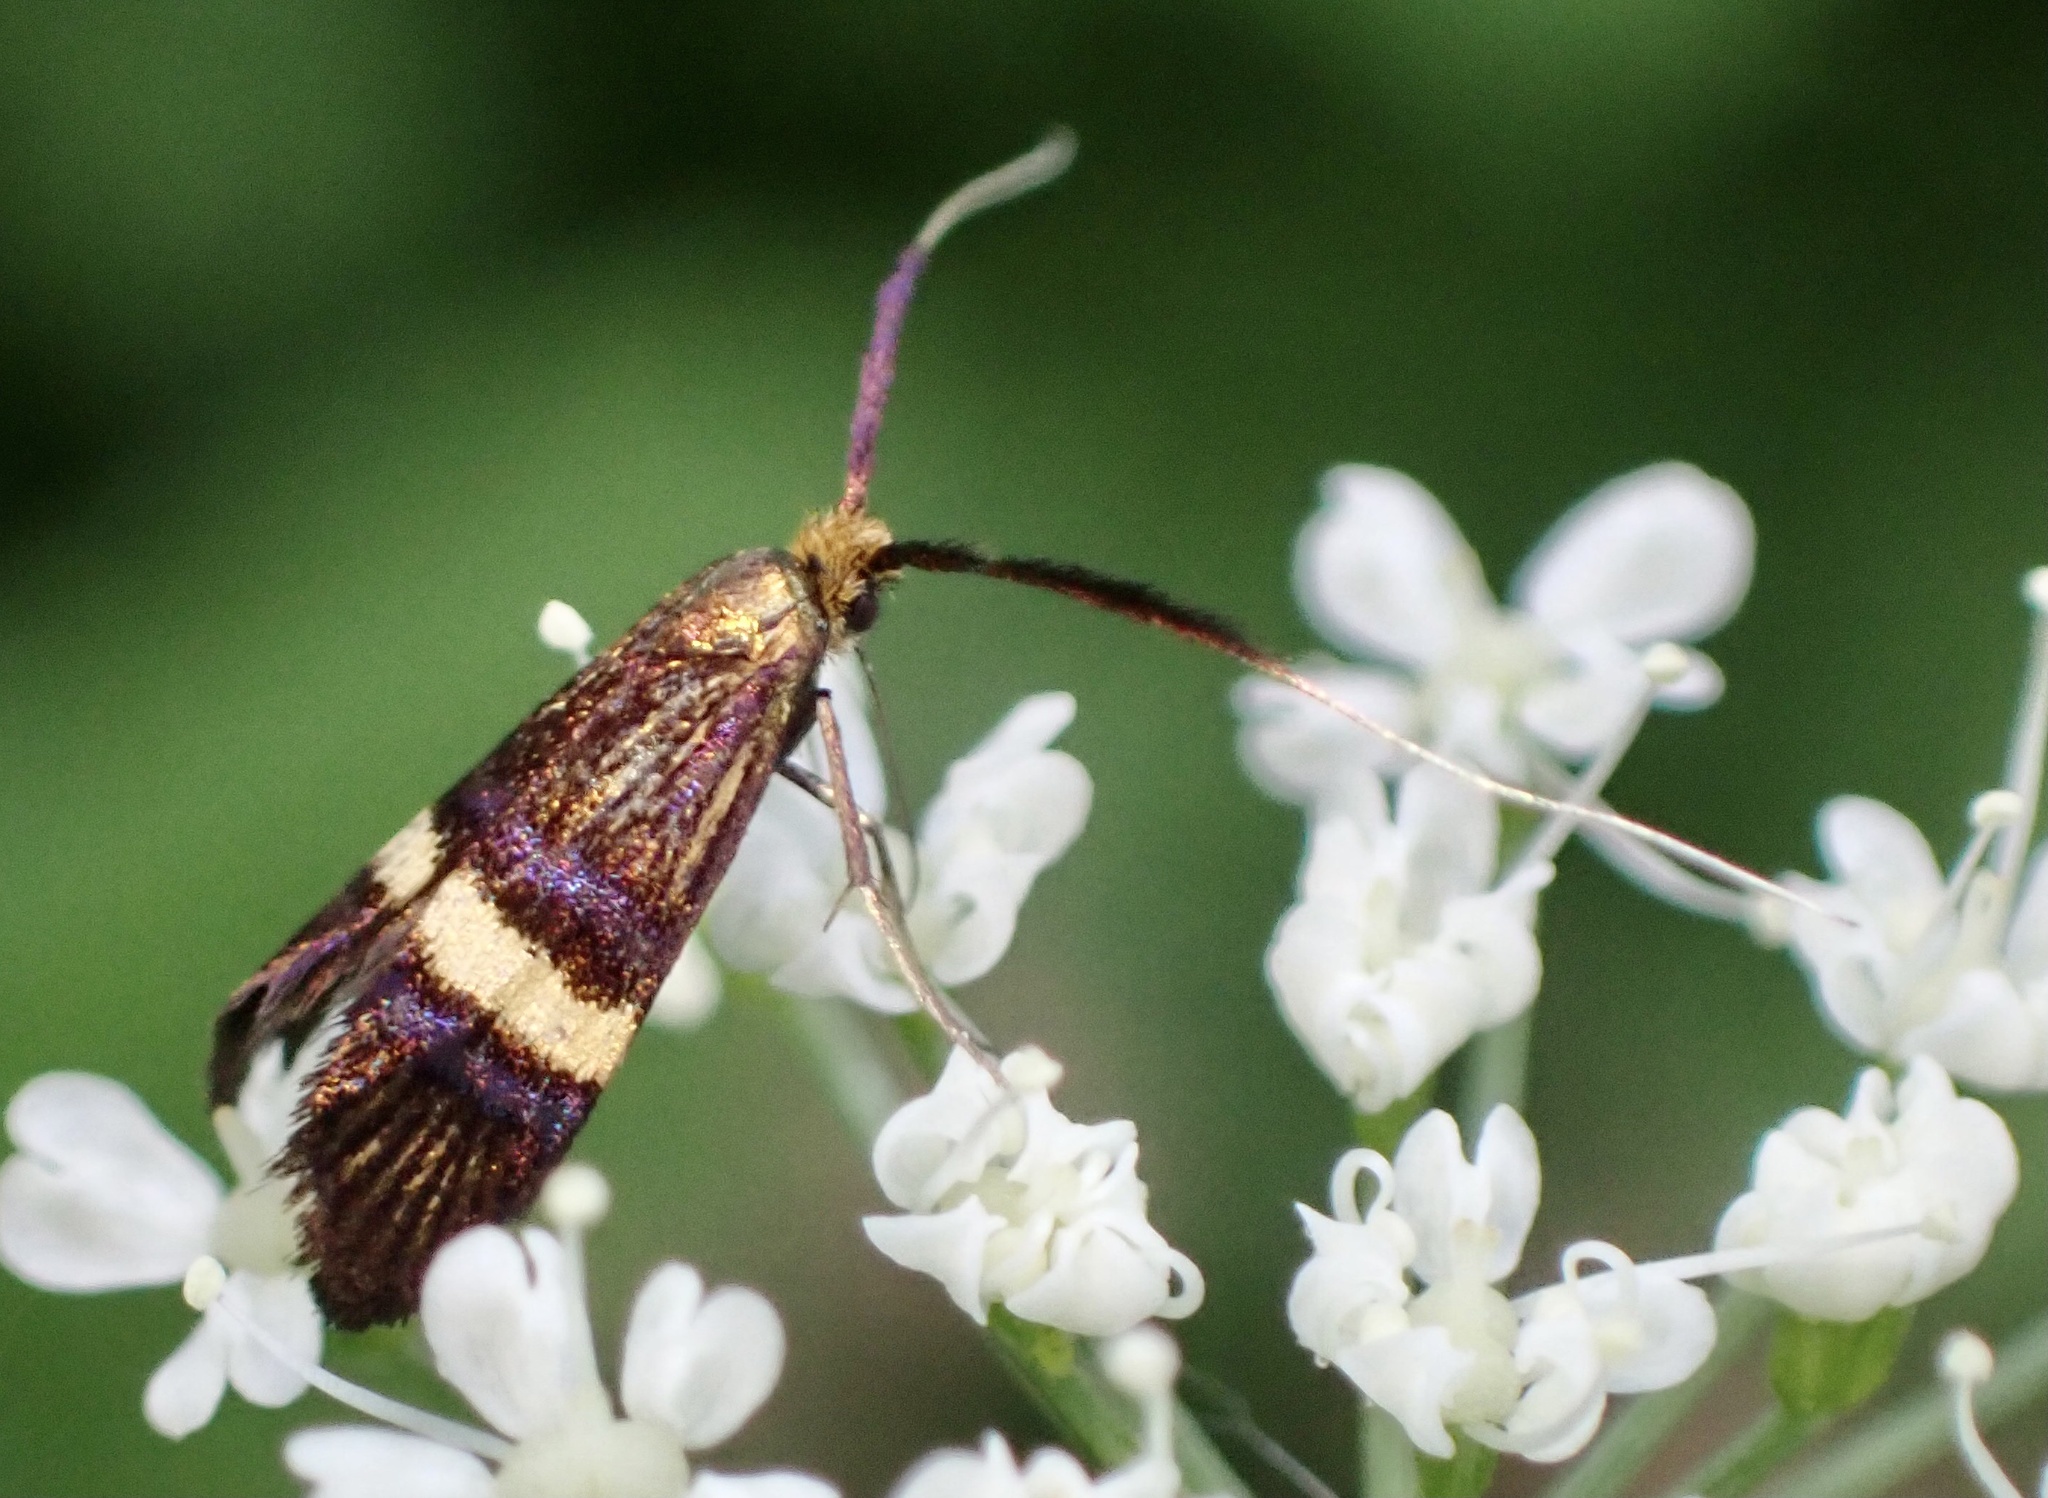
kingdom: Animalia
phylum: Arthropoda
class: Insecta
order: Lepidoptera
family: Adelidae
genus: Adela
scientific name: Adela croesella
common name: Small barred long-horn
